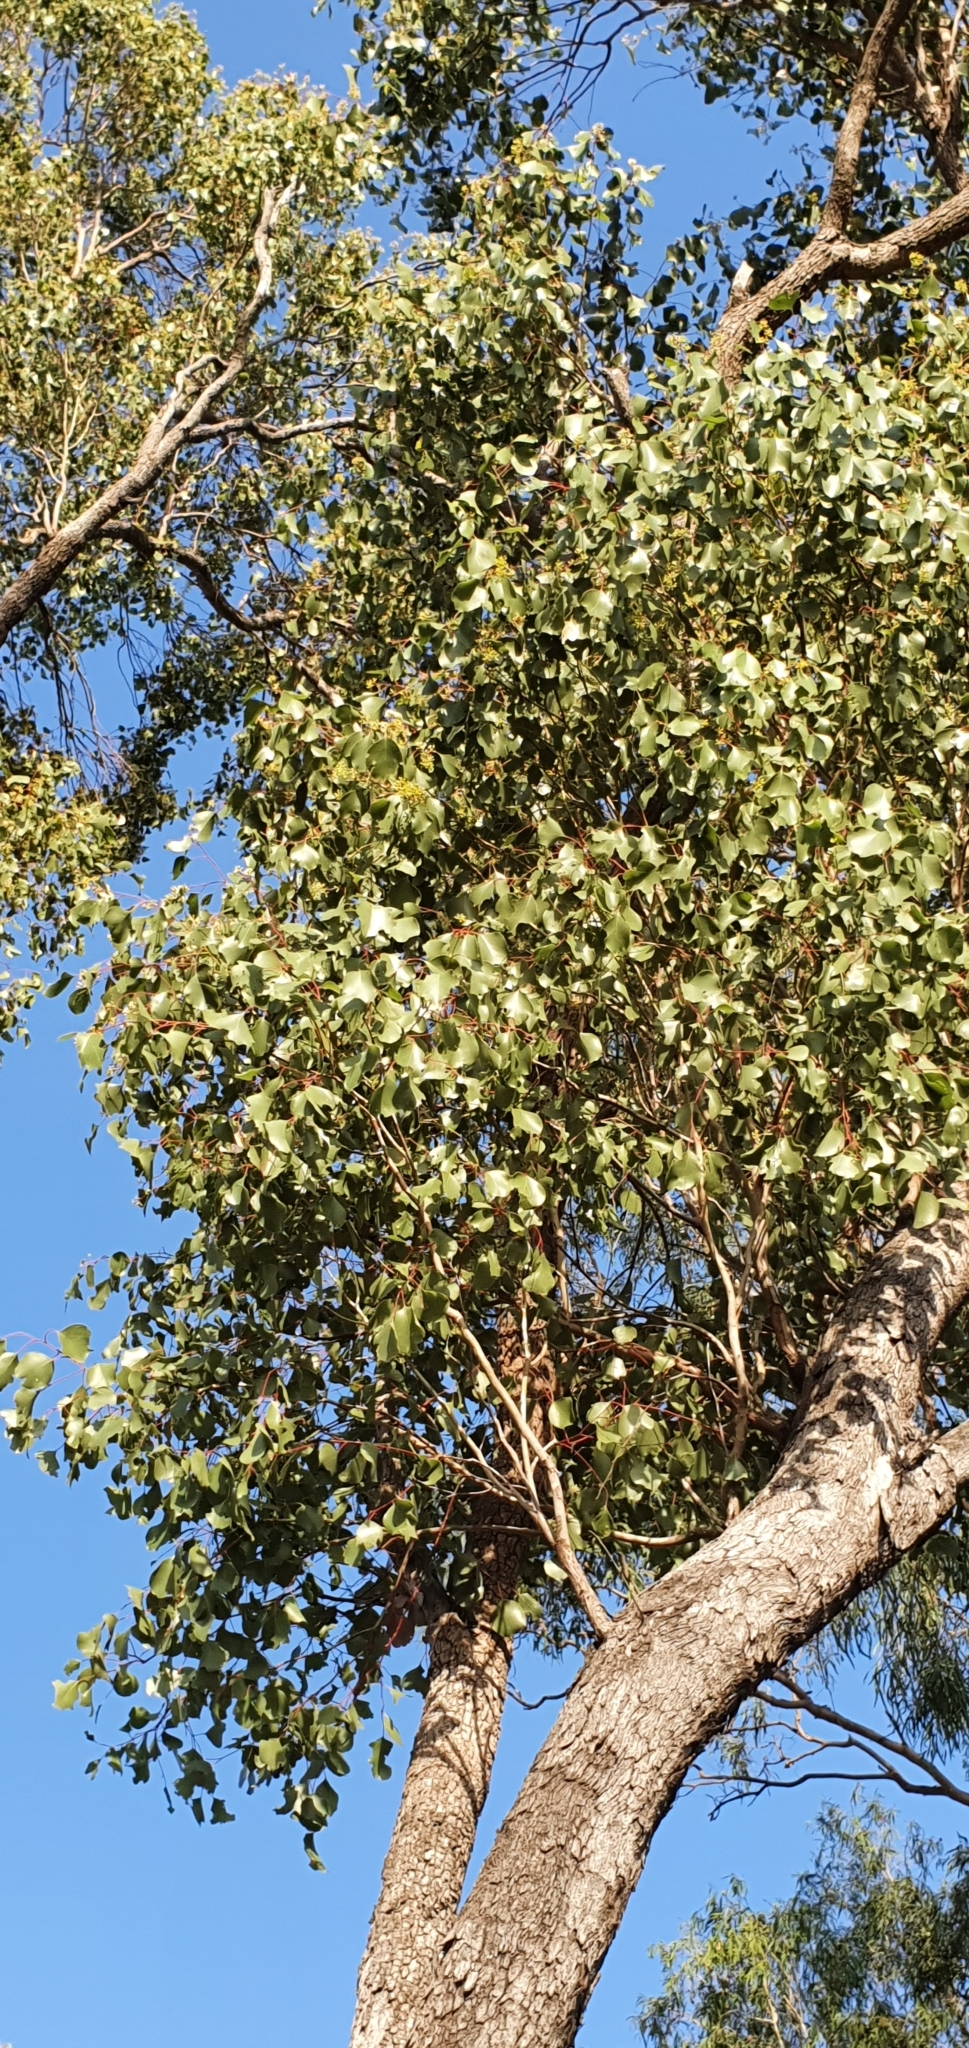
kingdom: Plantae
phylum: Tracheophyta
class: Magnoliopsida
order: Myrtales
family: Myrtaceae
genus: Eucalyptus
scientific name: Eucalyptus populnea
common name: Bimble box
